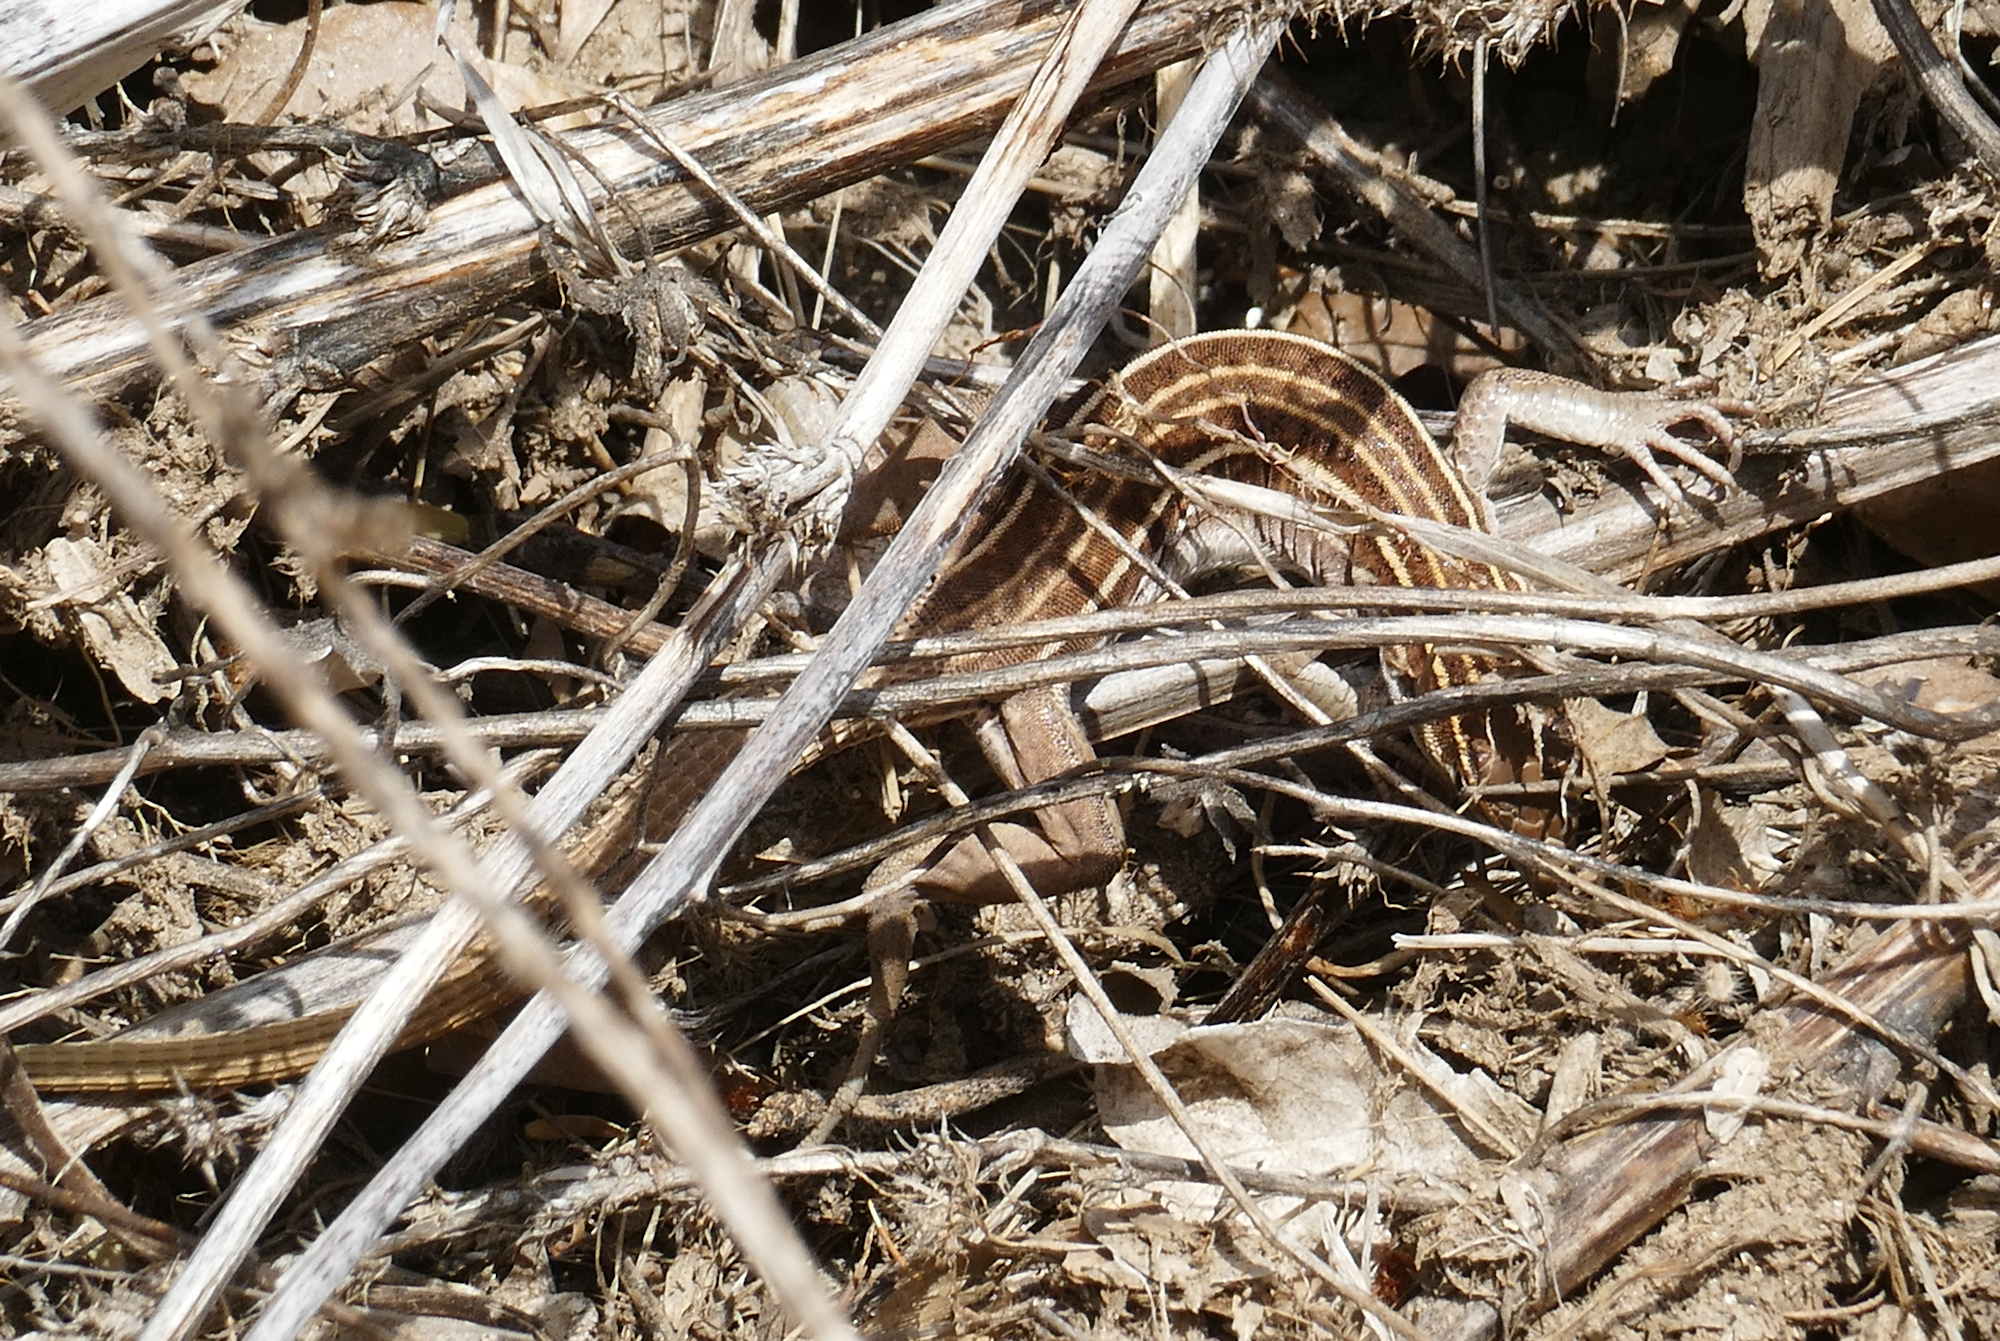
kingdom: Animalia
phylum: Chordata
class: Squamata
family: Teiidae
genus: Aspidoscelis
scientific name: Aspidoscelis sonorae
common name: Sonoran spotted whiptail
